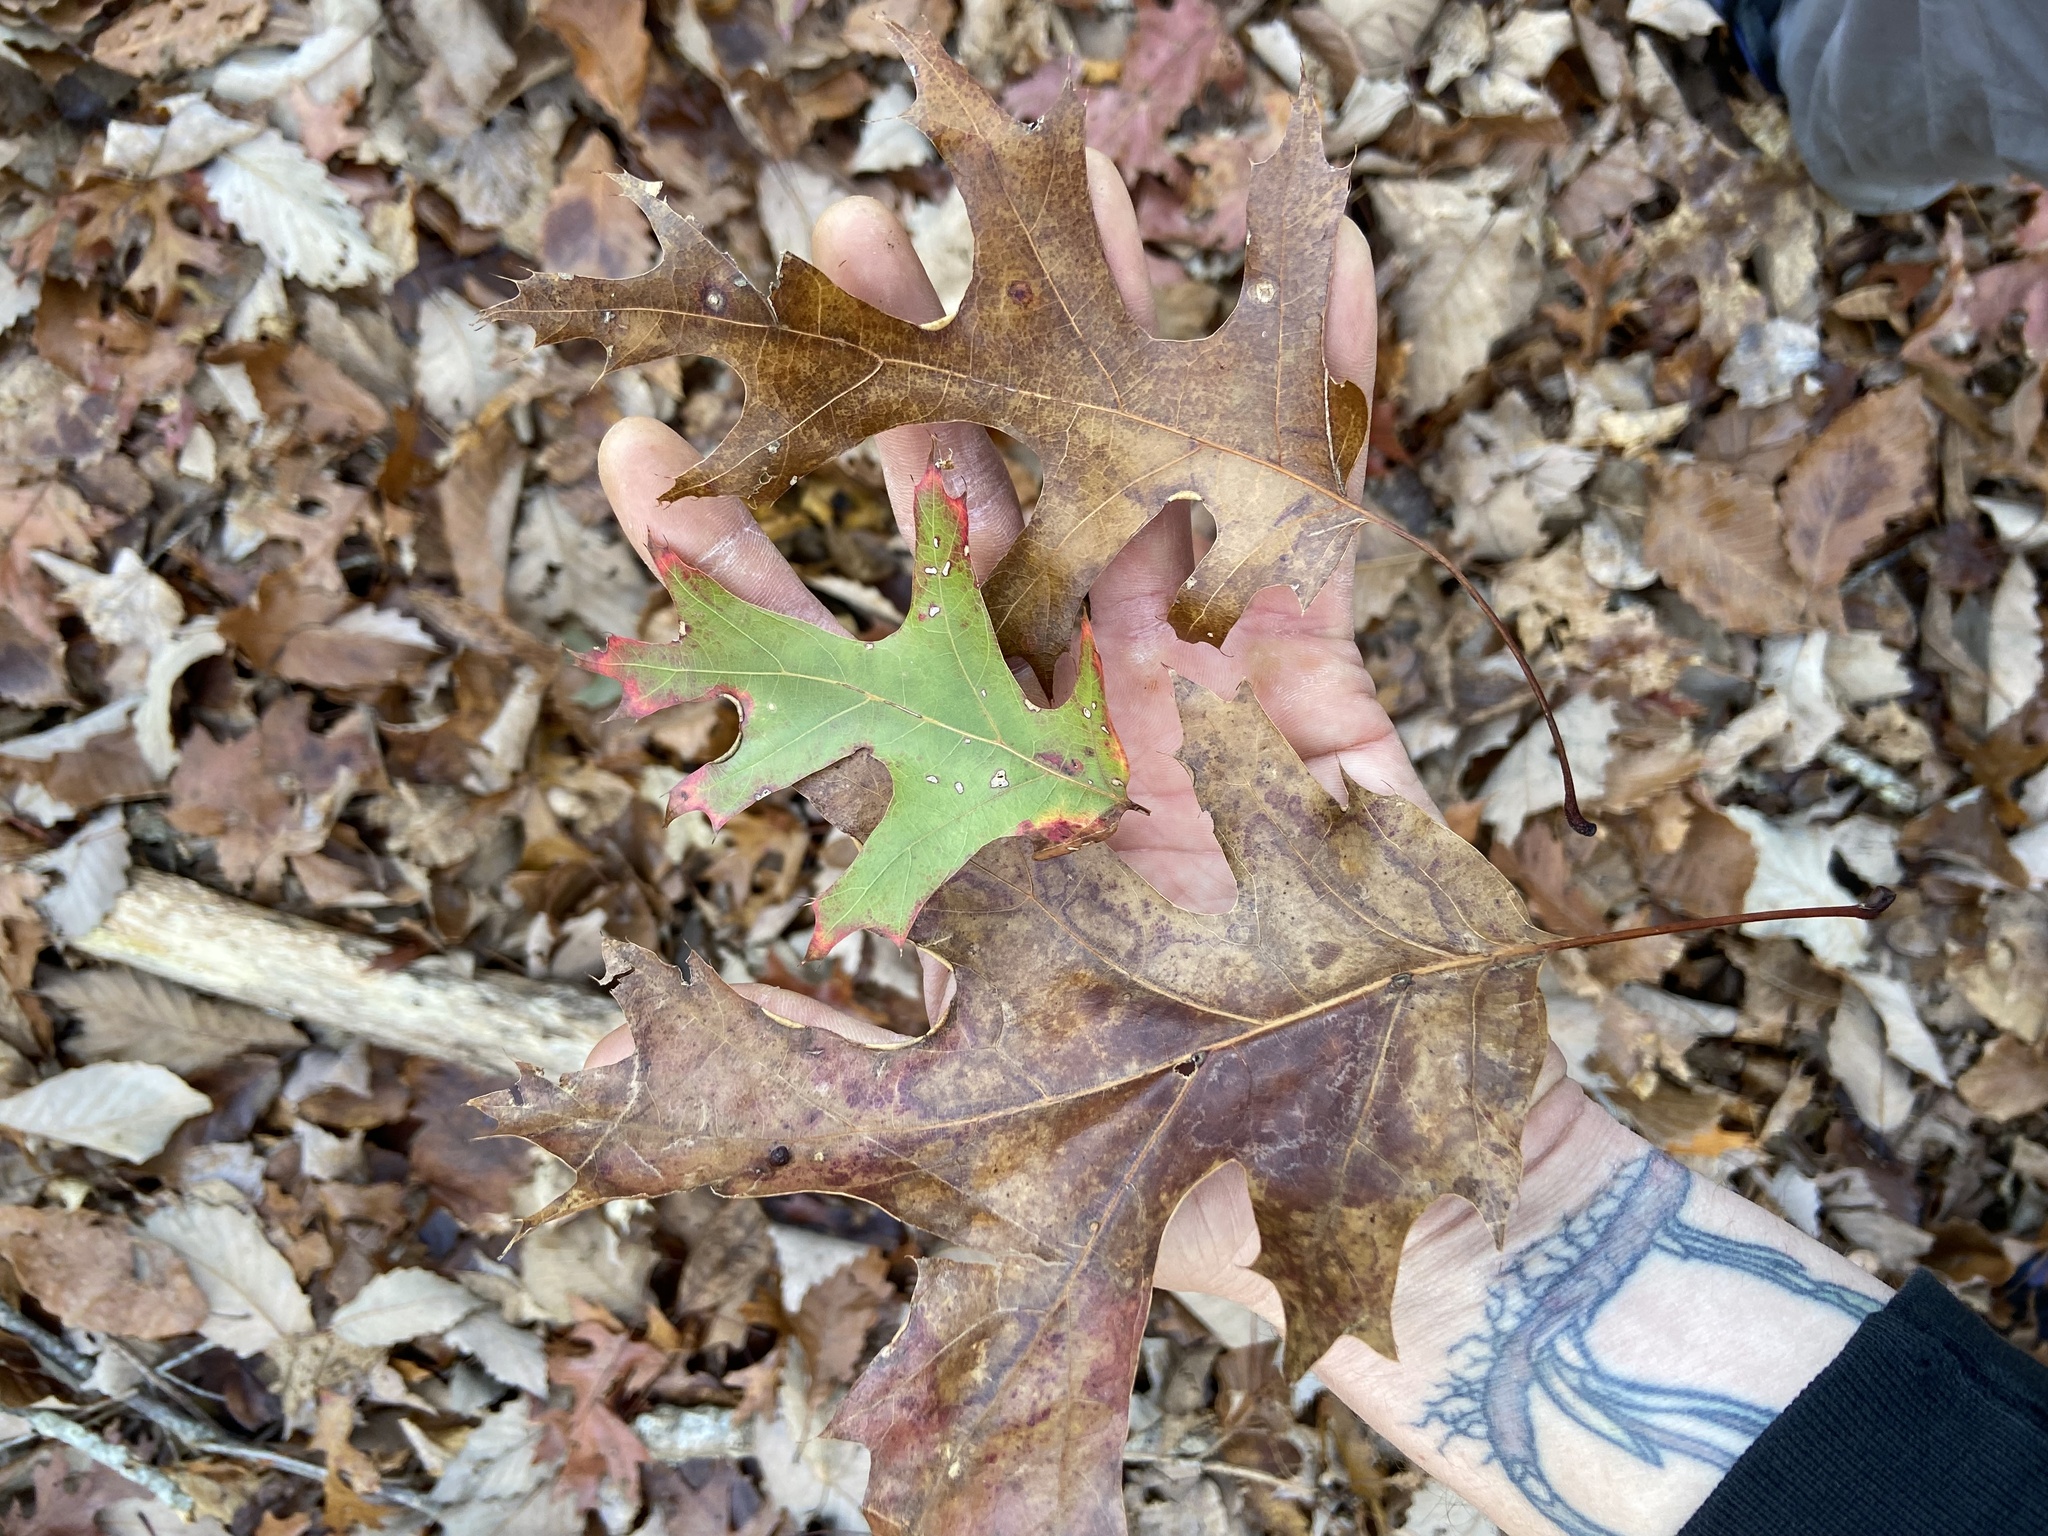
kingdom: Plantae
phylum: Tracheophyta
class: Magnoliopsida
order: Fagales
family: Fagaceae
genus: Quercus
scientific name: Quercus coccinea
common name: Scarlet oak
